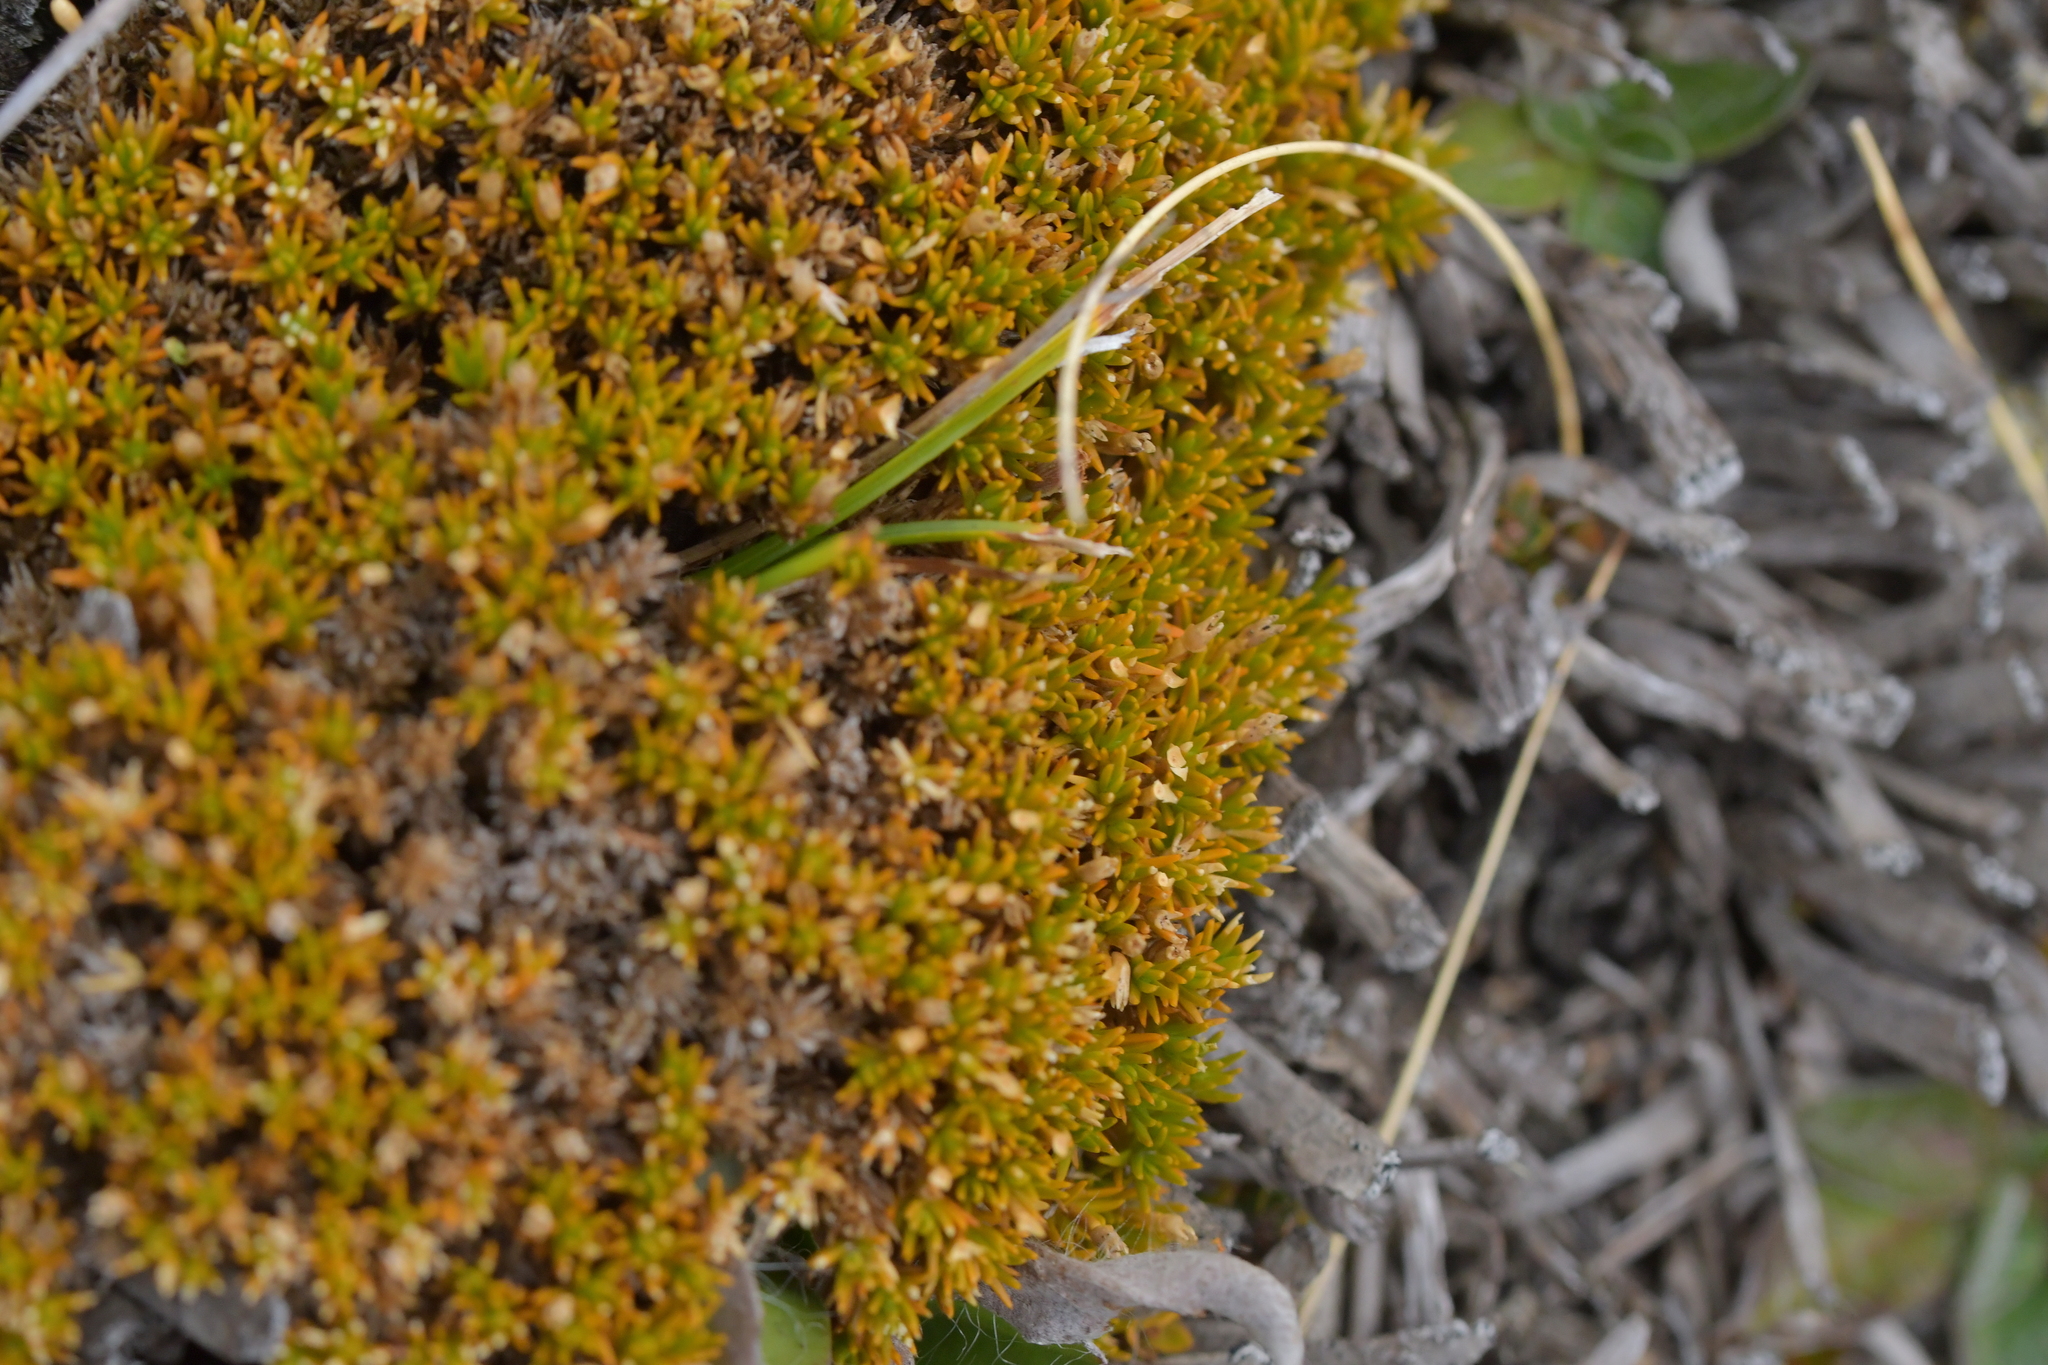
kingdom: Plantae
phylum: Tracheophyta
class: Magnoliopsida
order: Caryophyllales
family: Caryophyllaceae
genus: Scleranthus
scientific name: Scleranthus uniflorus
